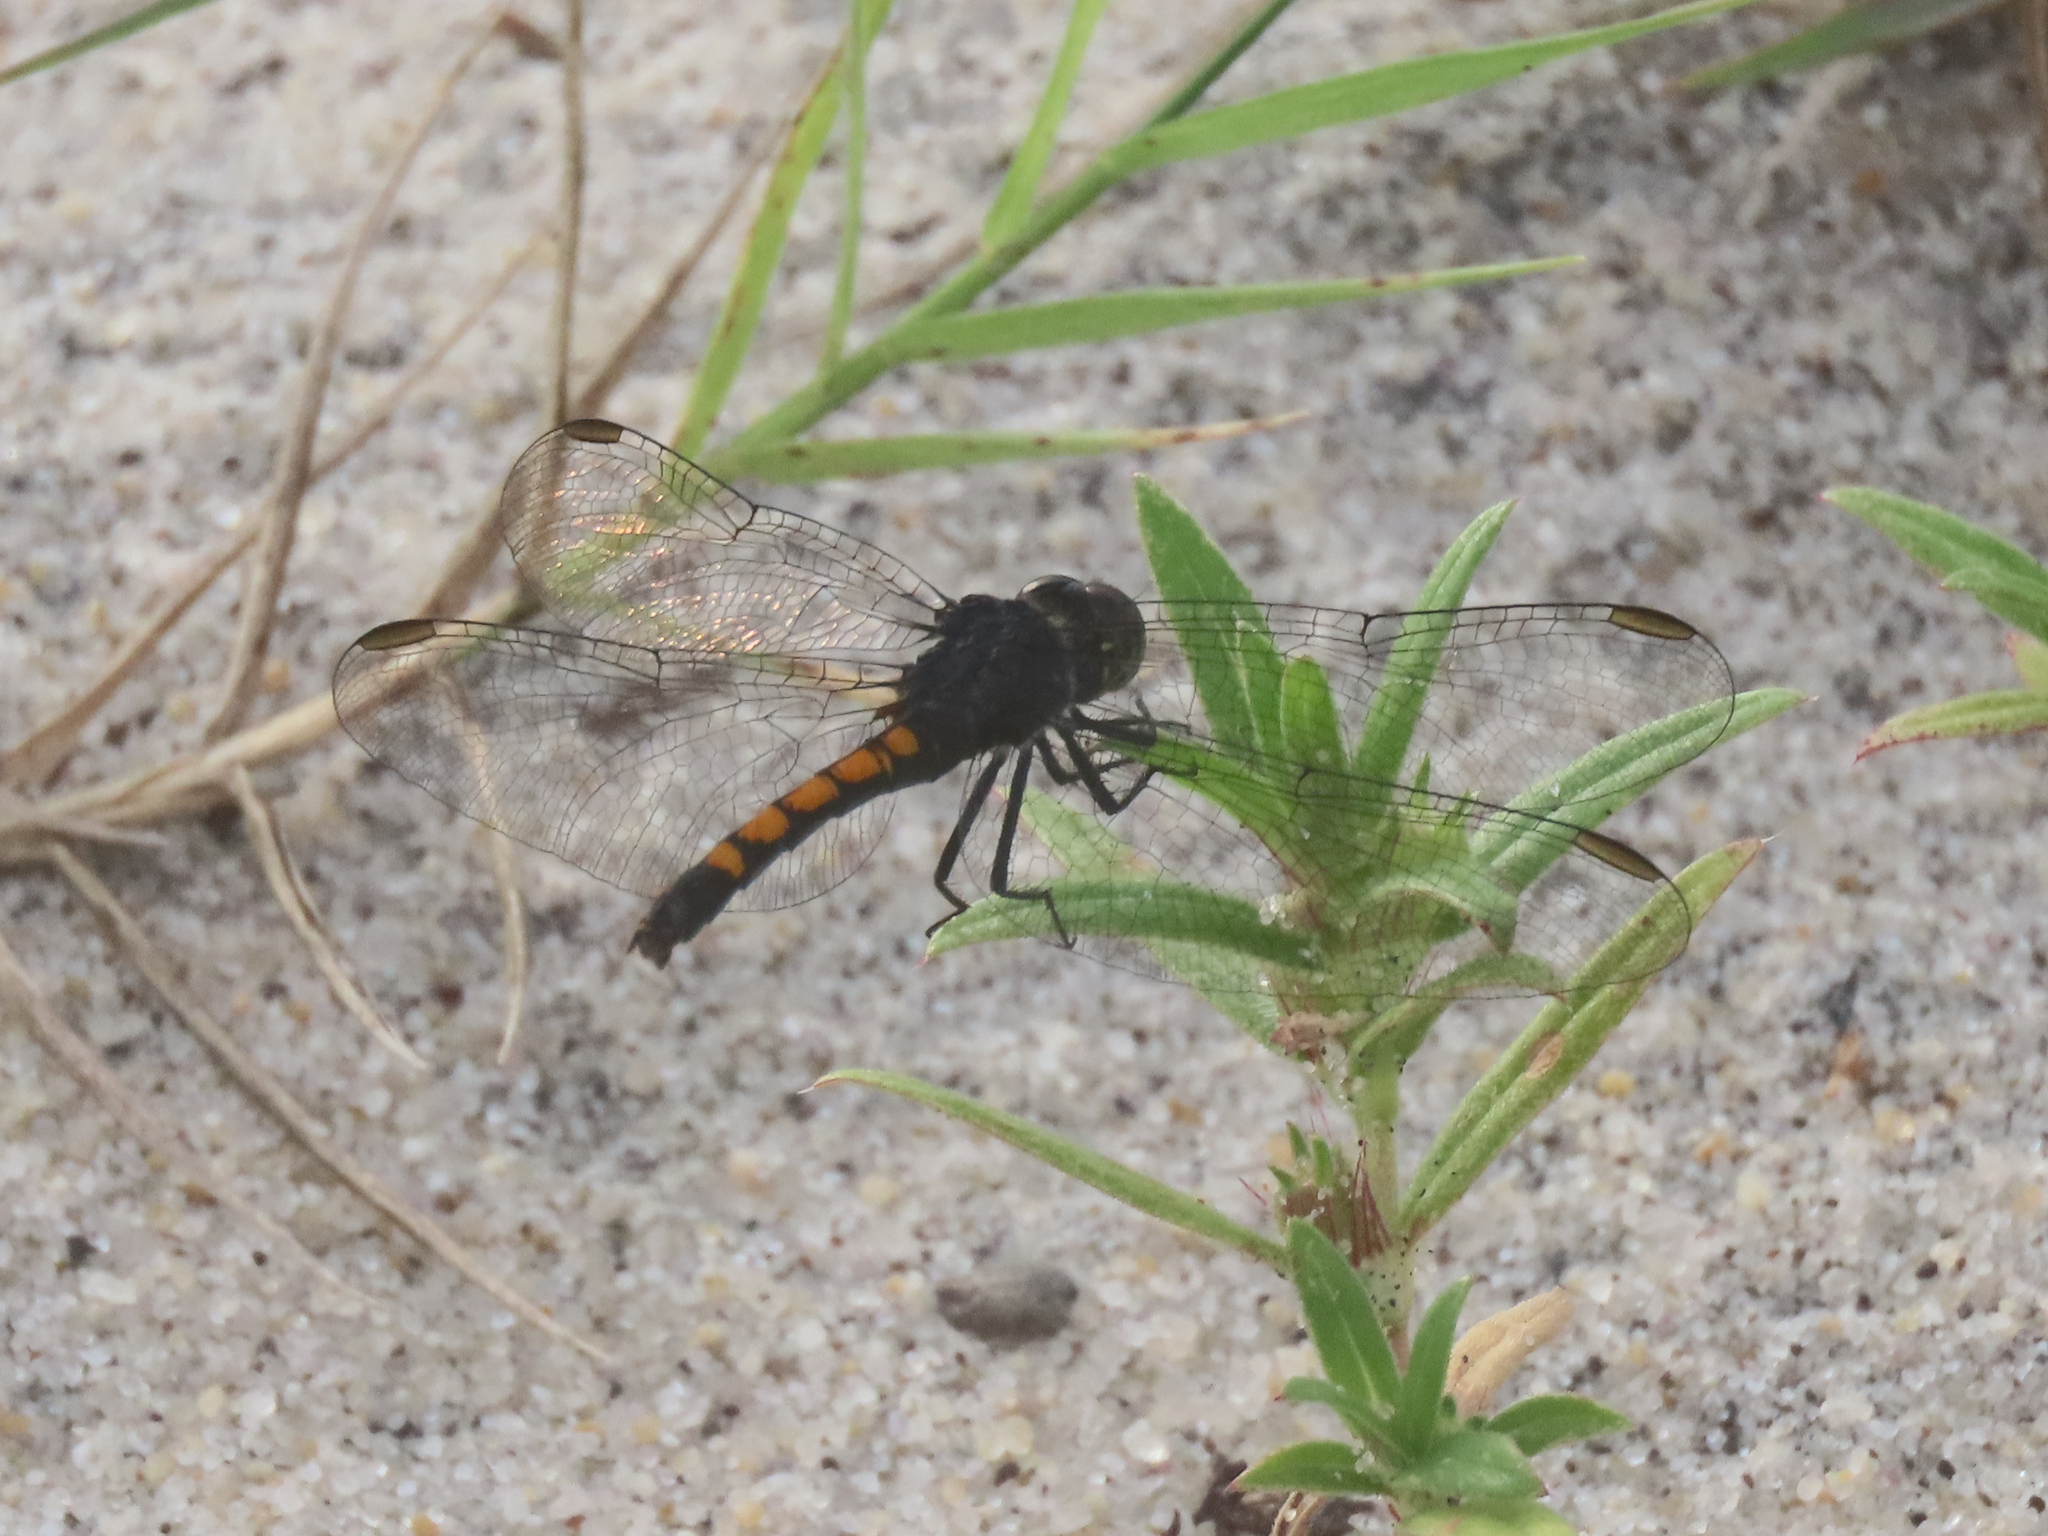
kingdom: Animalia
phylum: Arthropoda
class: Insecta
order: Odonata
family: Libellulidae
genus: Erythrodiplax
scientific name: Erythrodiplax berenice
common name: Seaside dragonlet
